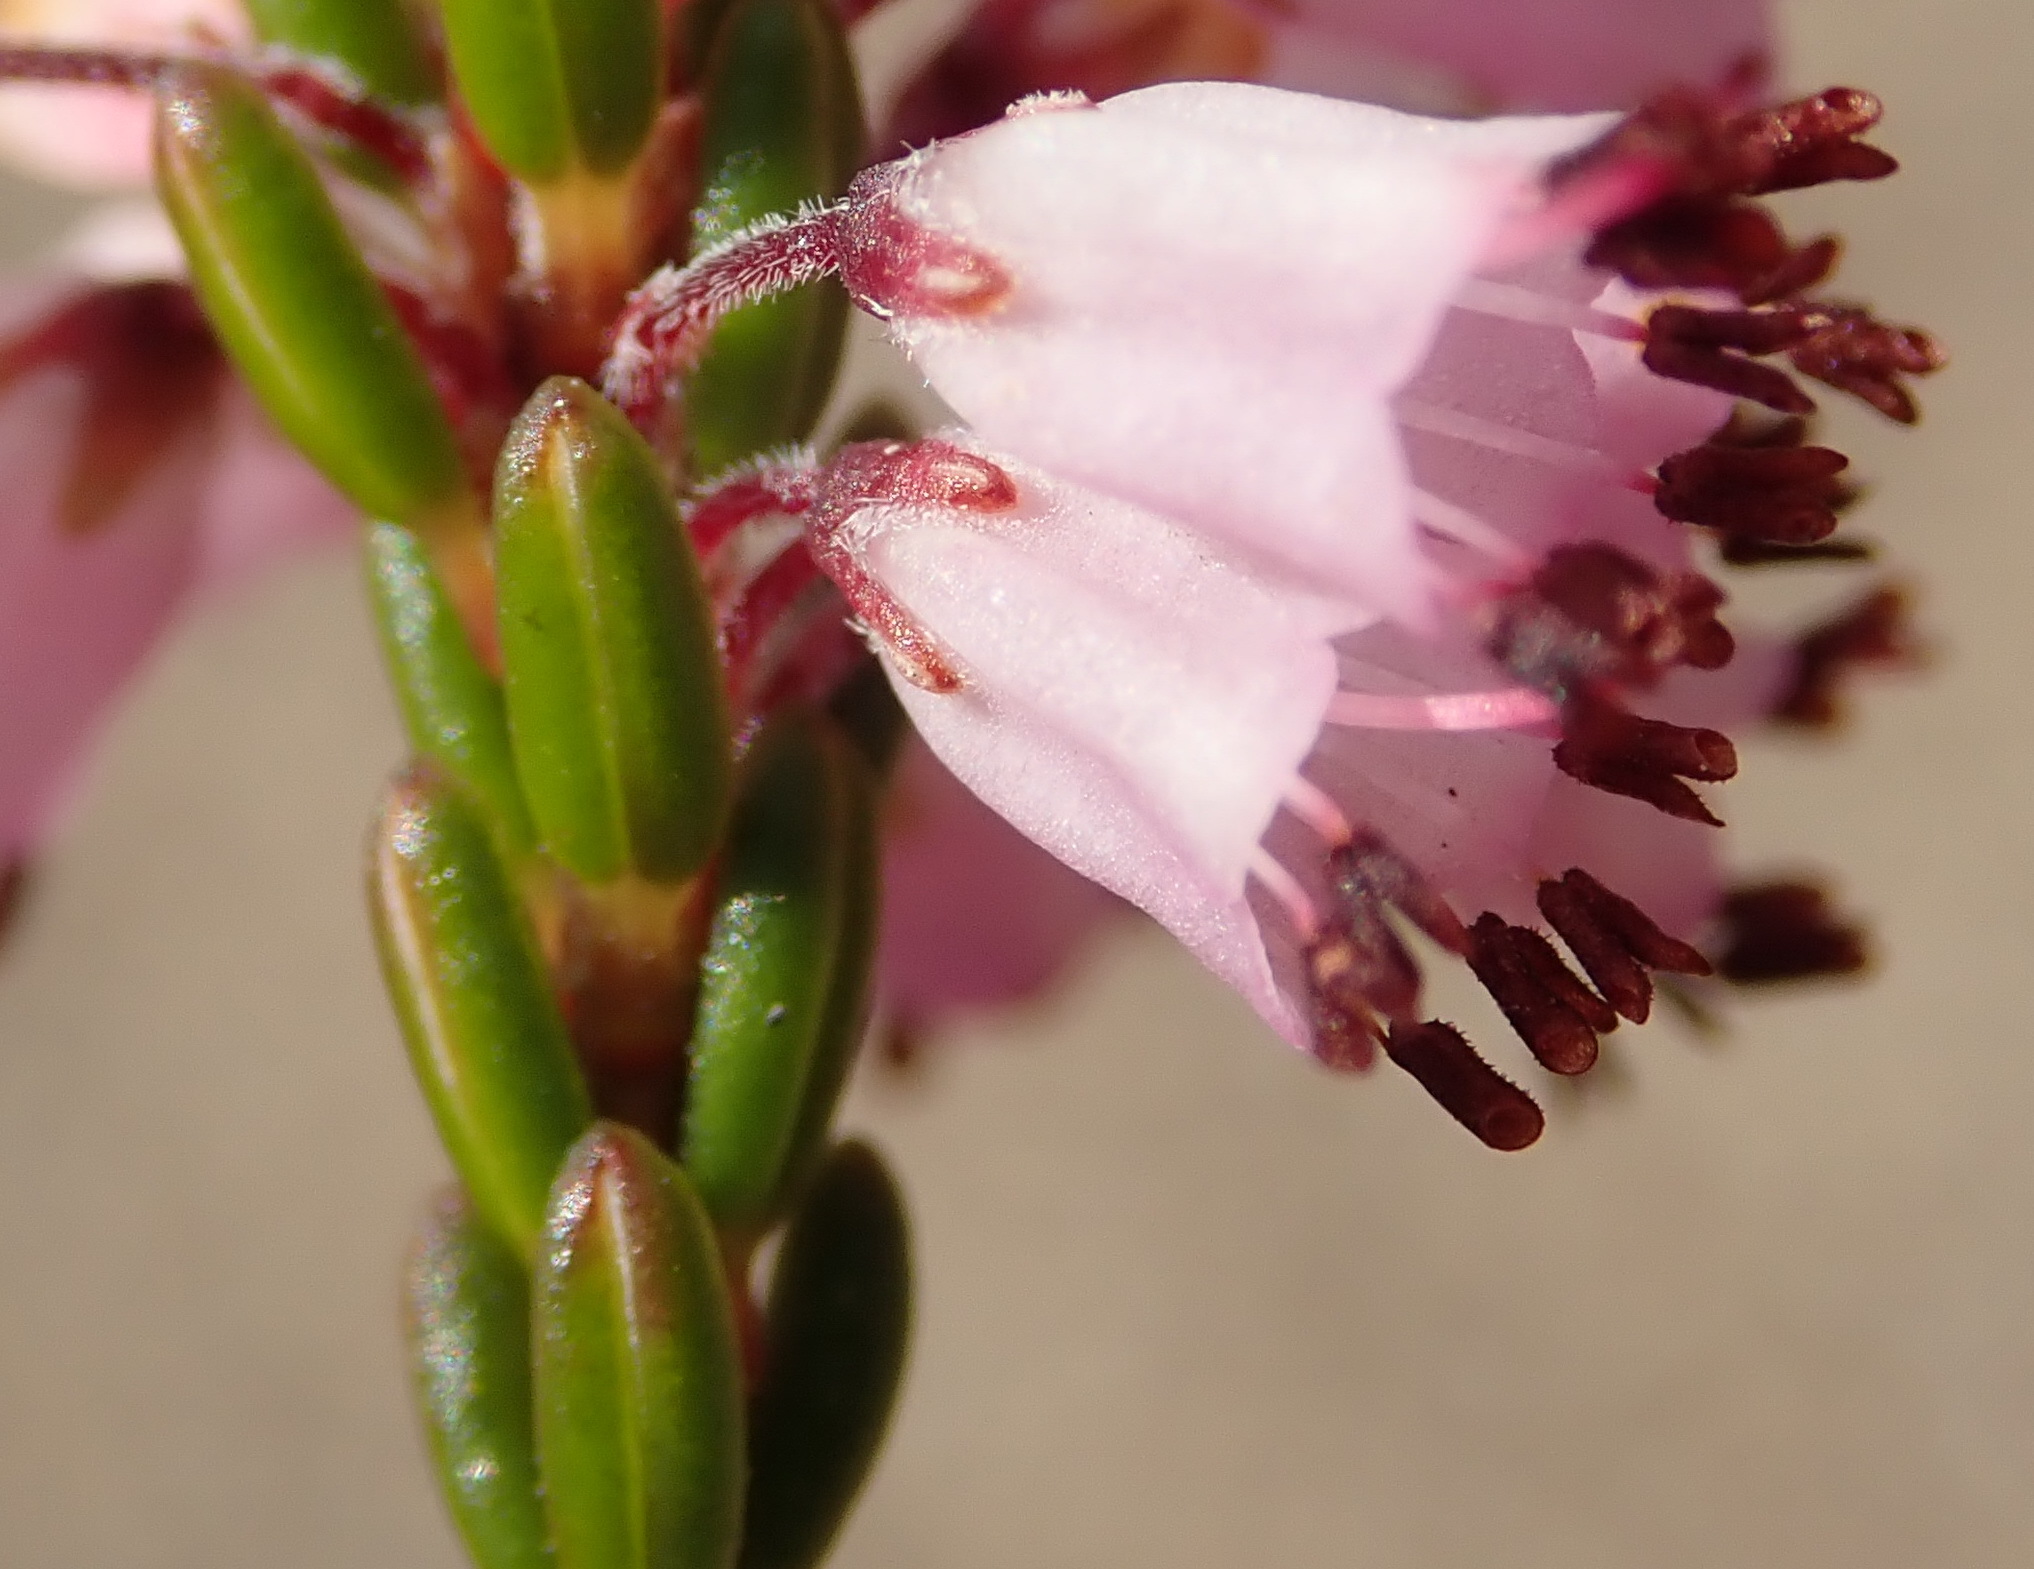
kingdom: Plantae
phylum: Tracheophyta
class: Magnoliopsida
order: Ericales
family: Ericaceae
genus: Erica
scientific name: Erica nudiflora
